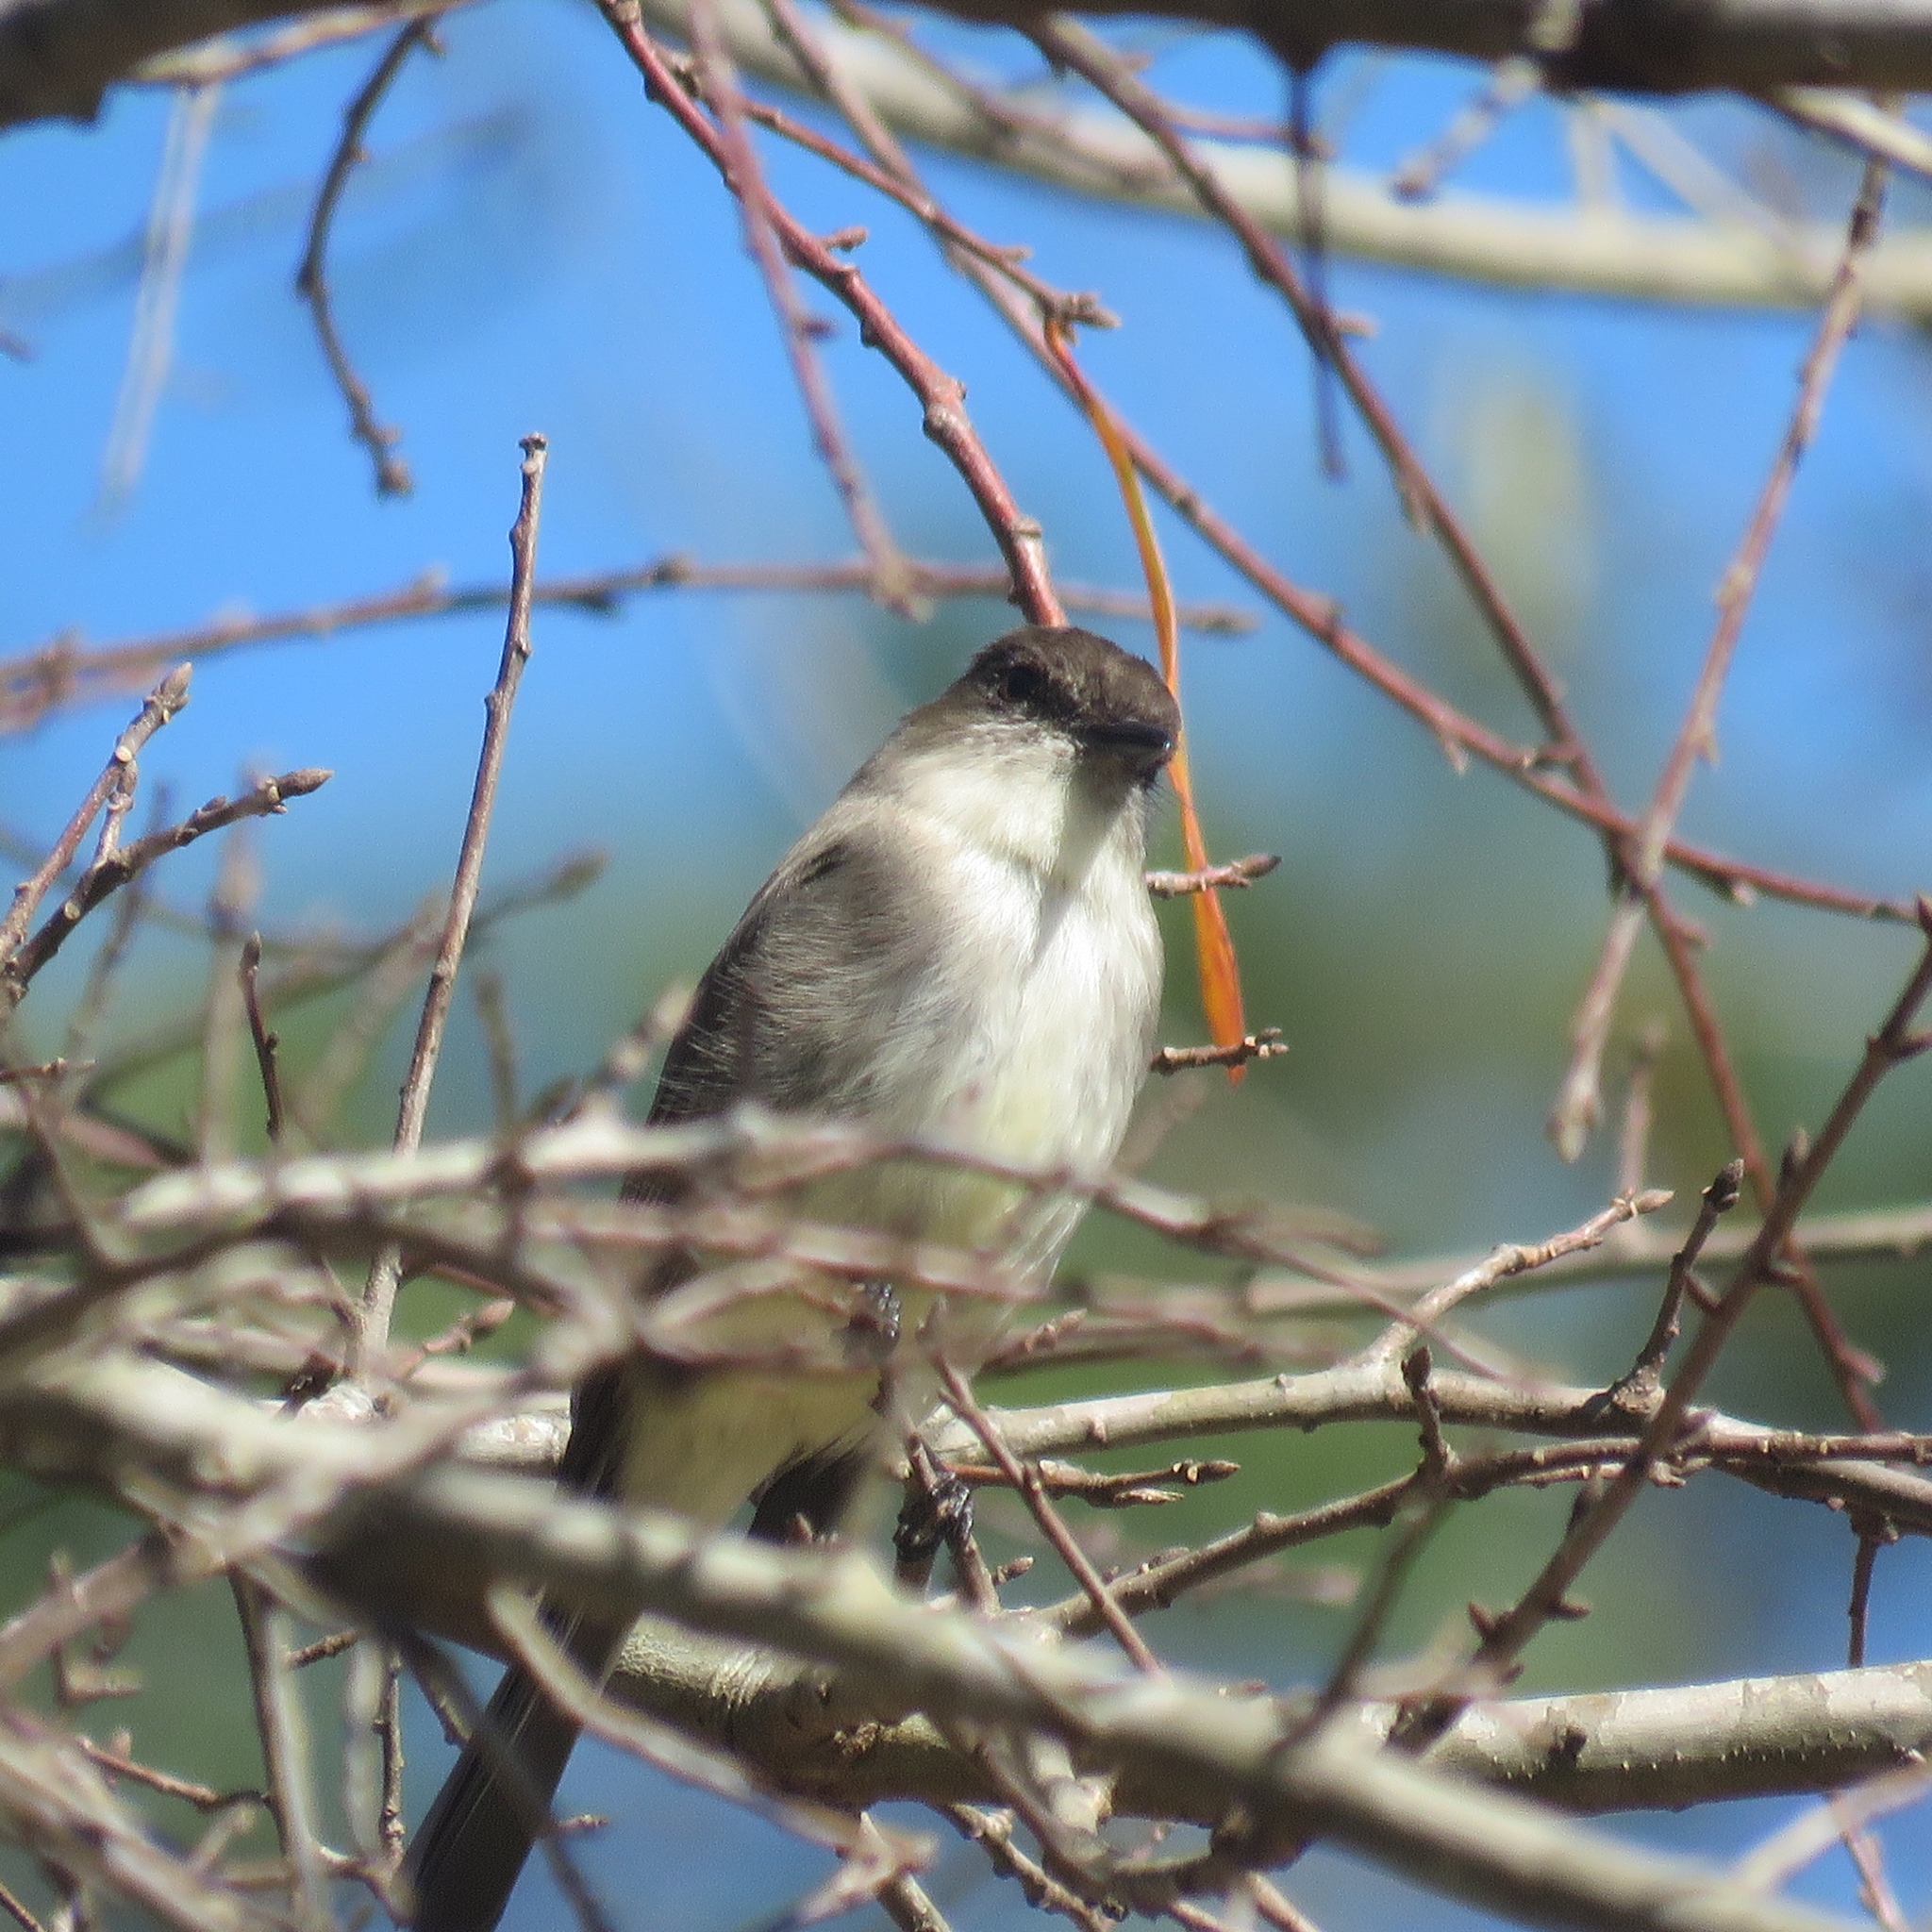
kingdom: Animalia
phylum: Chordata
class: Aves
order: Passeriformes
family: Tyrannidae
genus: Sayornis
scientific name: Sayornis phoebe
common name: Eastern phoebe
